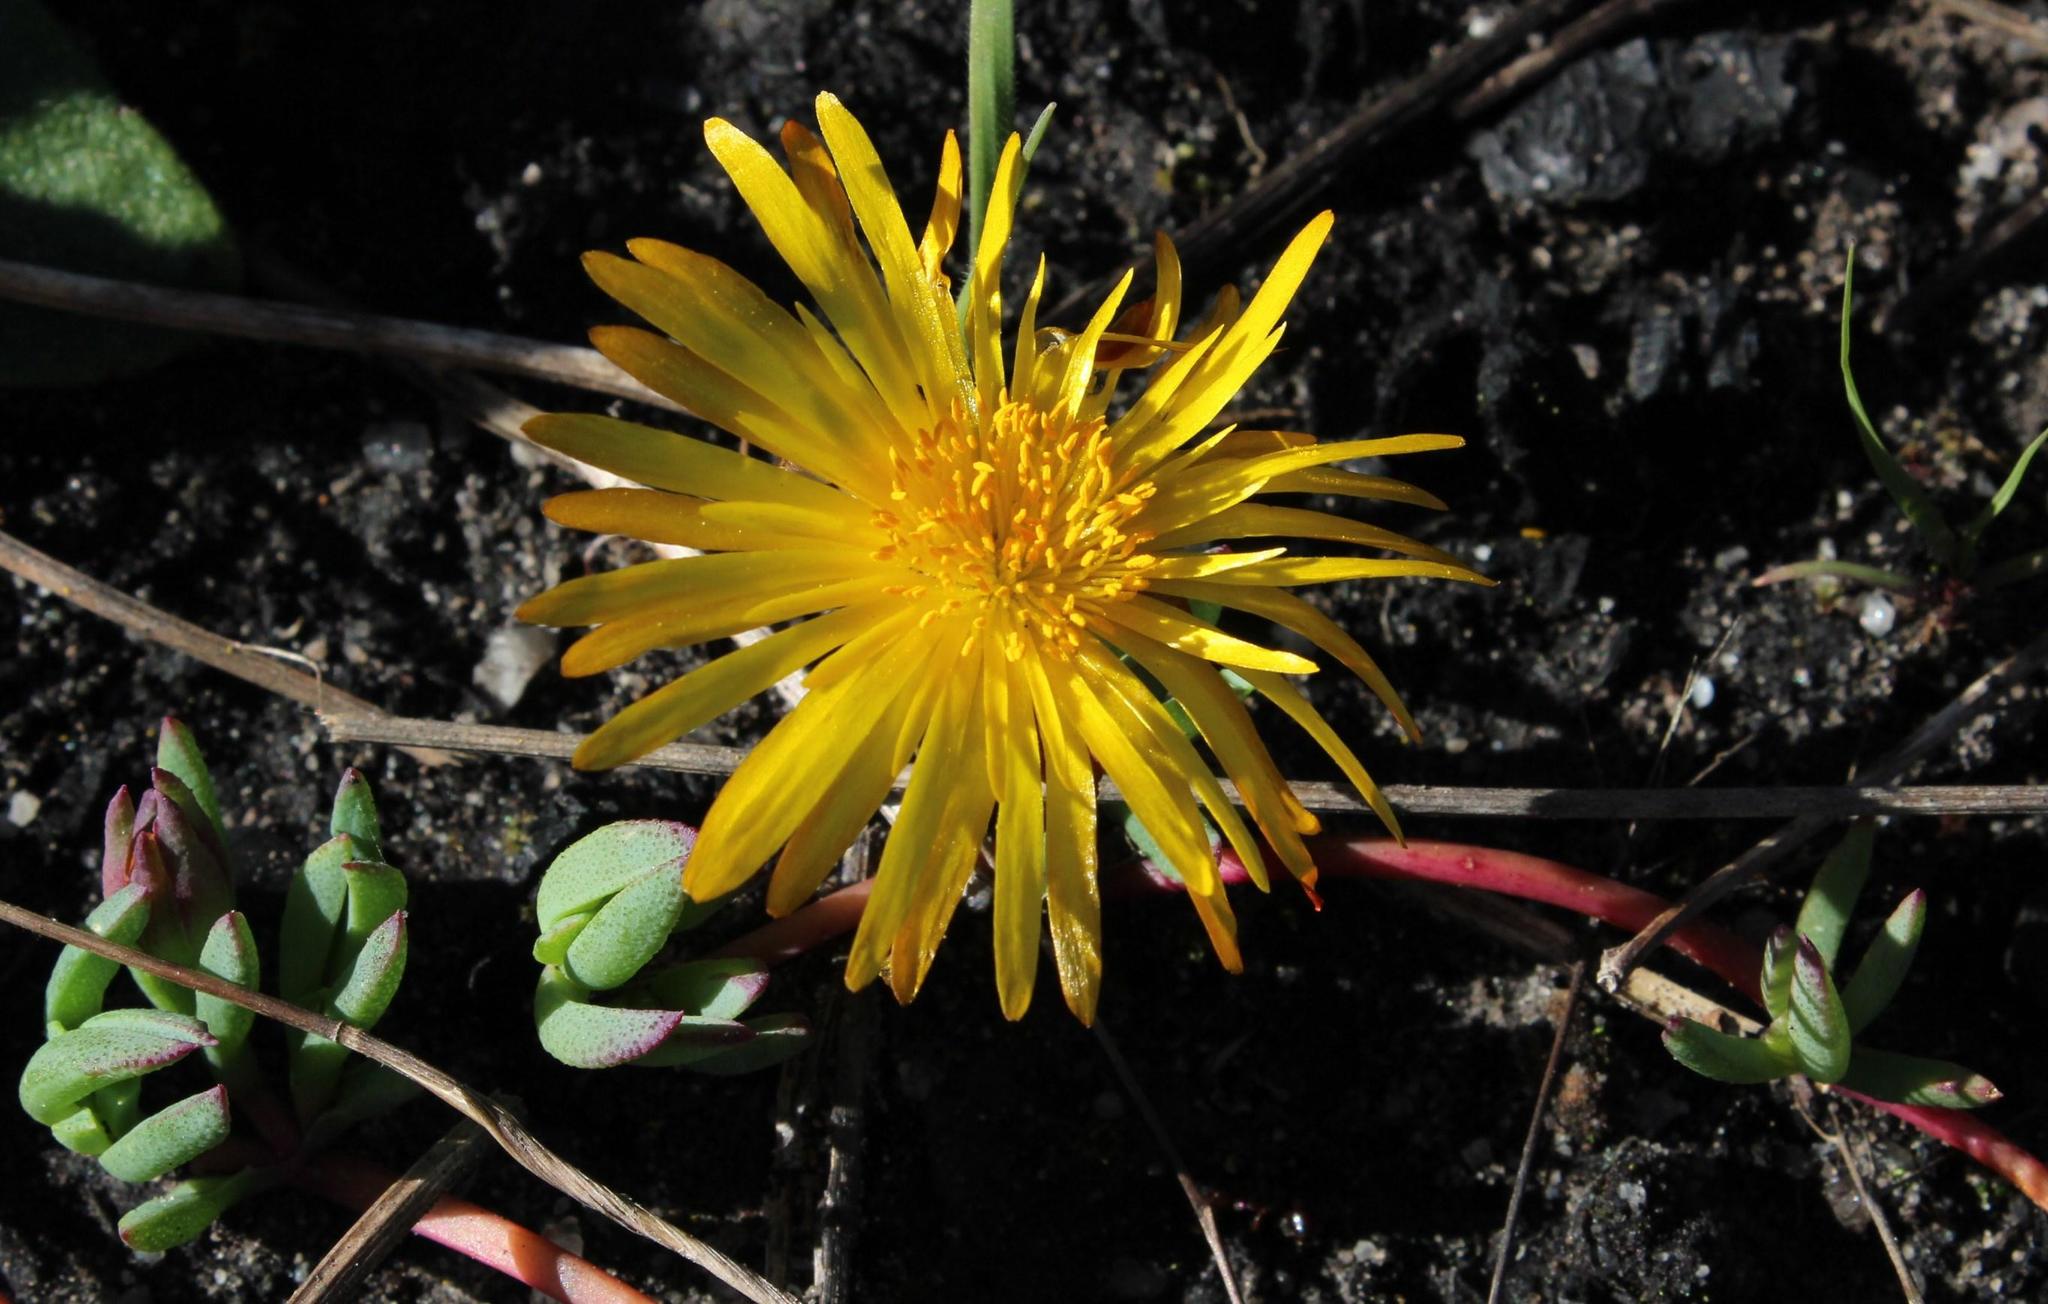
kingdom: Plantae
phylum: Tracheophyta
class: Magnoliopsida
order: Caryophyllales
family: Aizoaceae
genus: Lampranthus
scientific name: Lampranthus reptans
